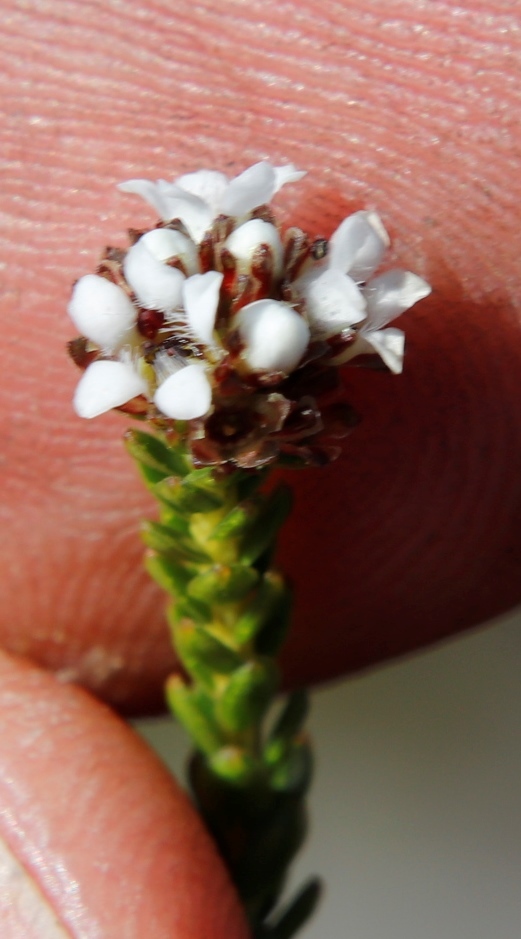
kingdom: Plantae
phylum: Tracheophyta
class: Magnoliopsida
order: Sapindales
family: Rutaceae
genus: Euchaetis
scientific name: Euchaetis glabra
